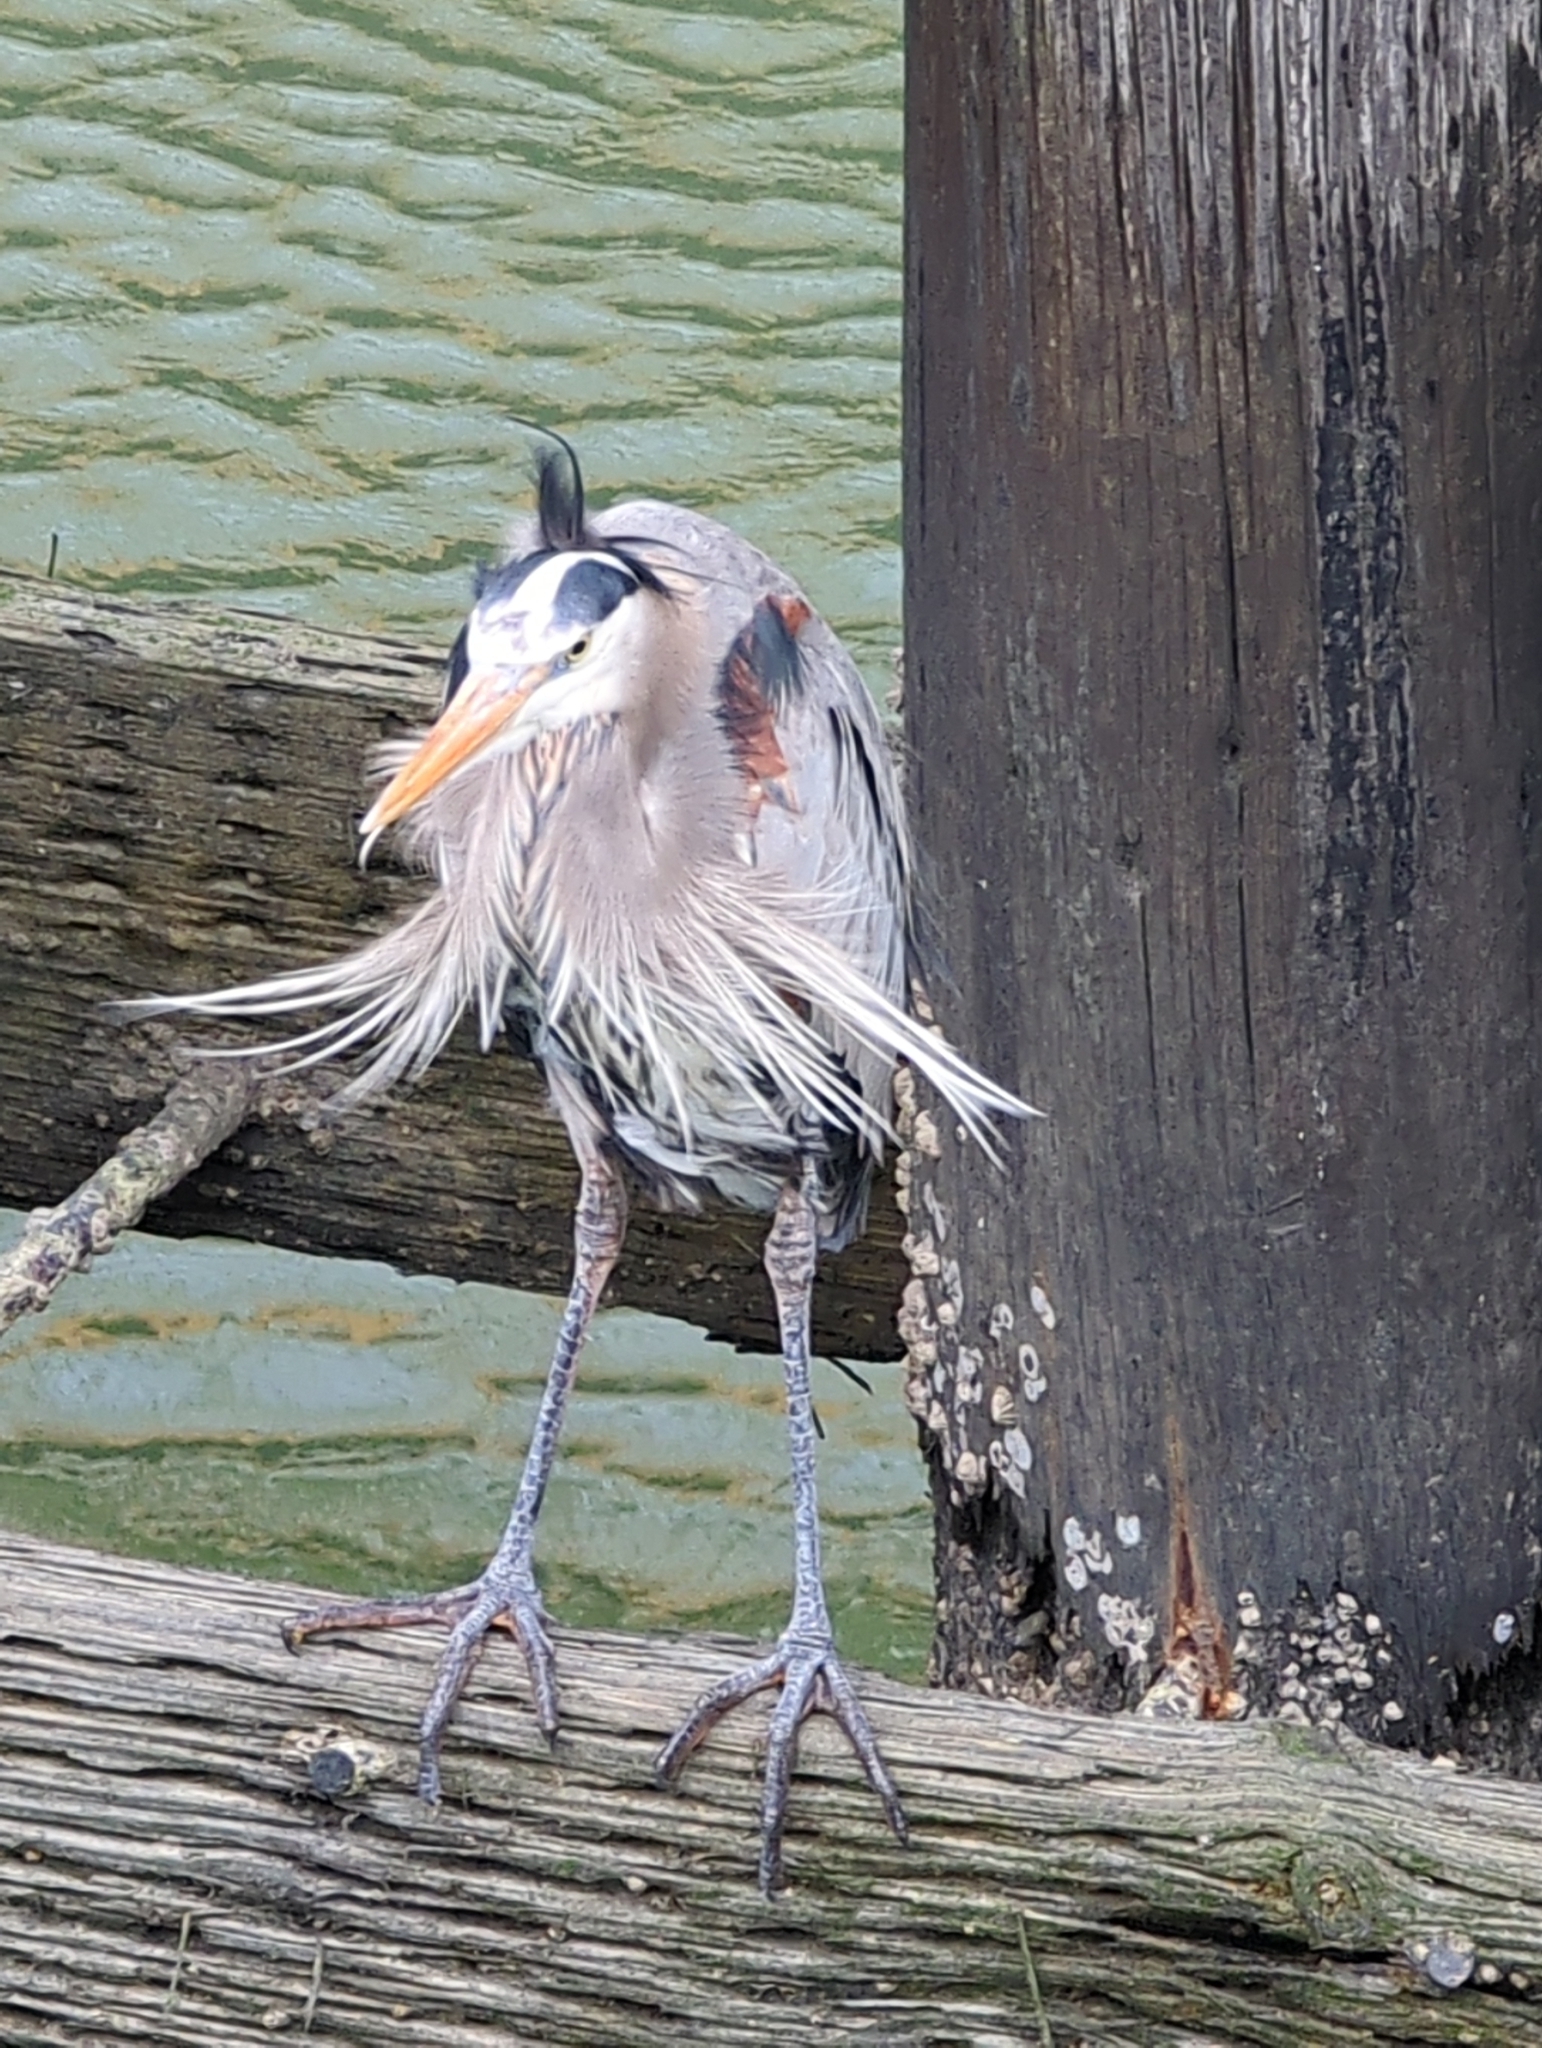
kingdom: Animalia
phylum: Chordata
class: Aves
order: Pelecaniformes
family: Ardeidae
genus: Ardea
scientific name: Ardea herodias
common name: Great blue heron
